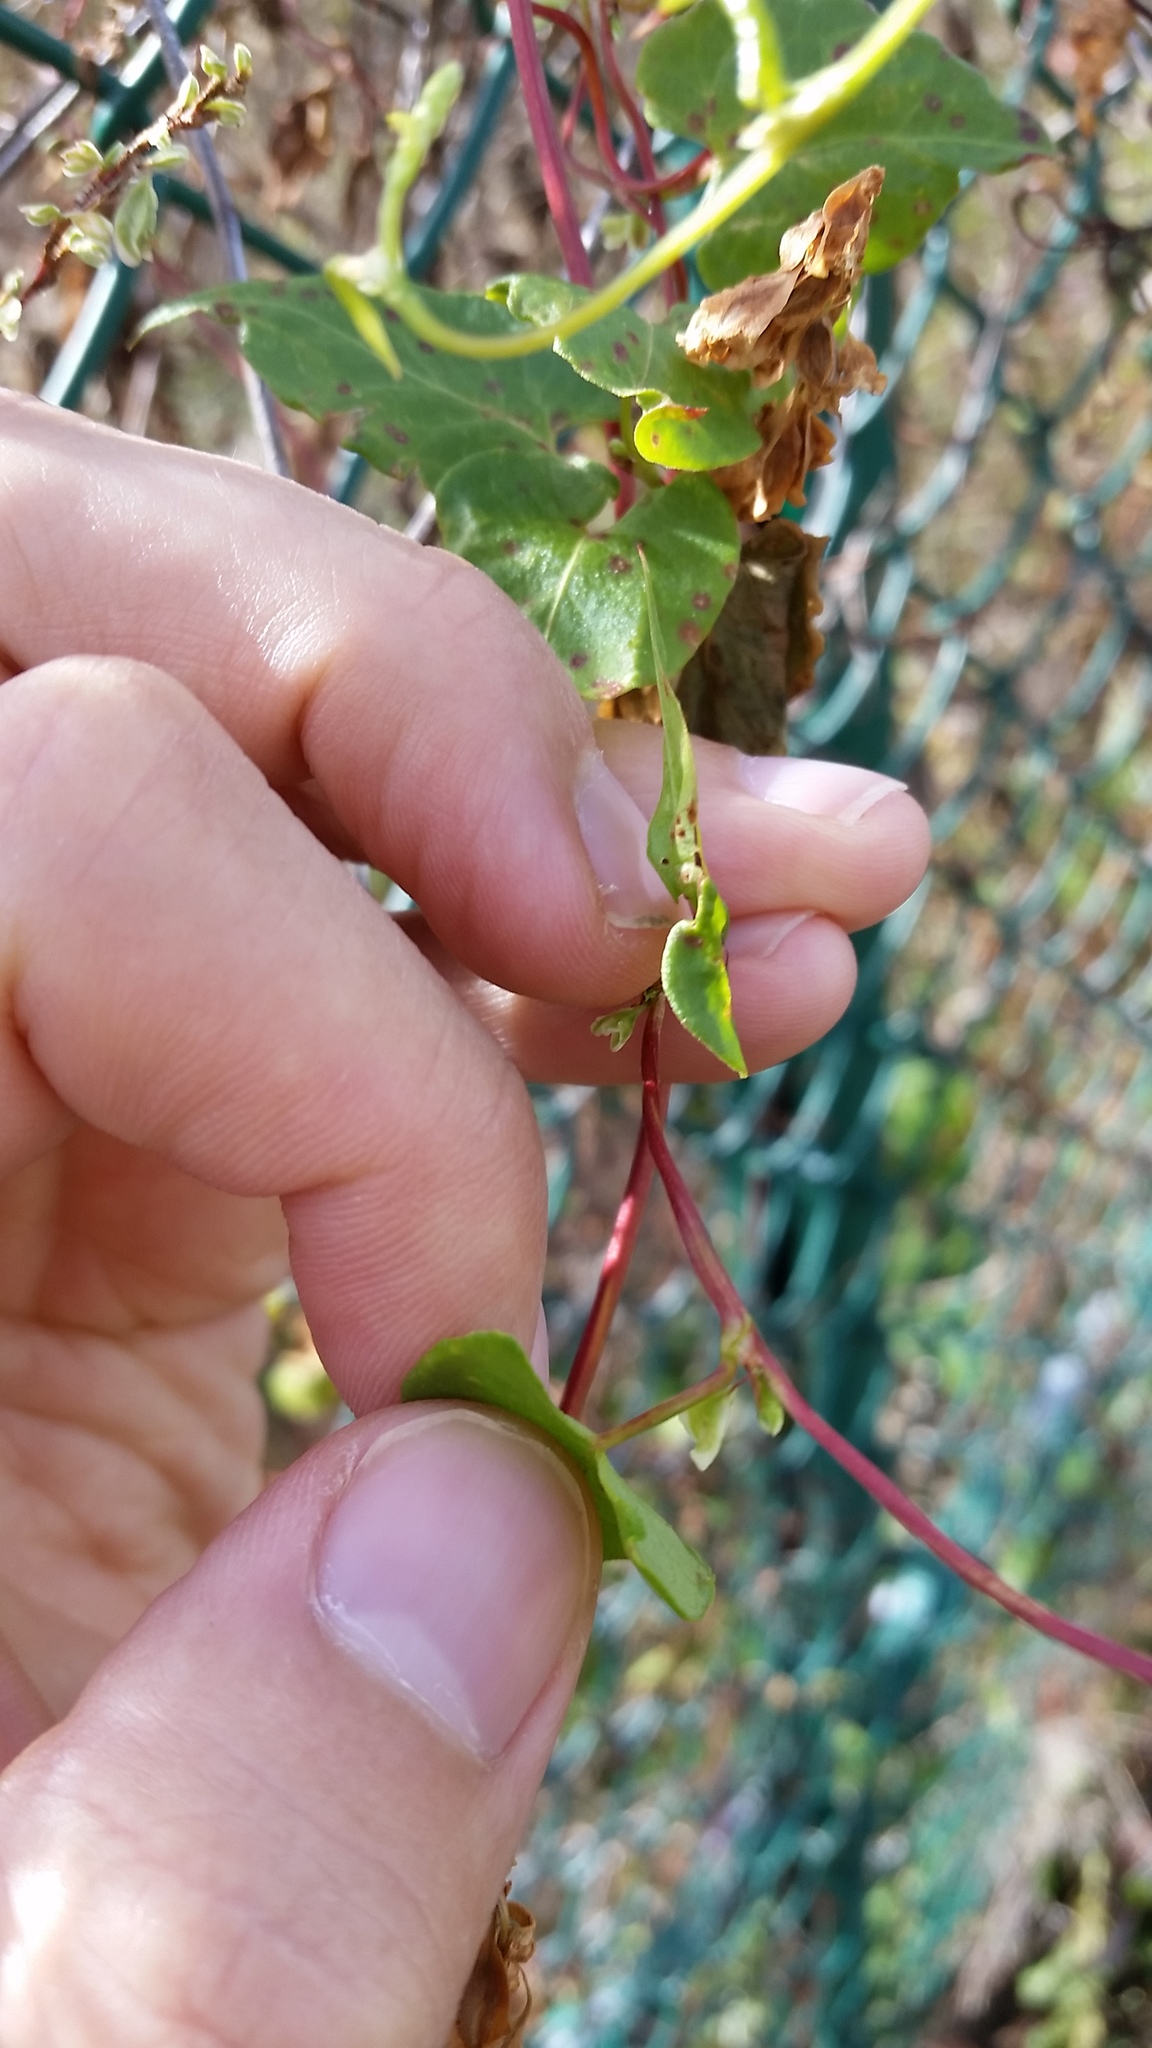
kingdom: Plantae
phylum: Tracheophyta
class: Magnoliopsida
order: Caryophyllales
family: Polygonaceae
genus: Fallopia
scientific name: Fallopia scandens
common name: Climbing false buckwheat
